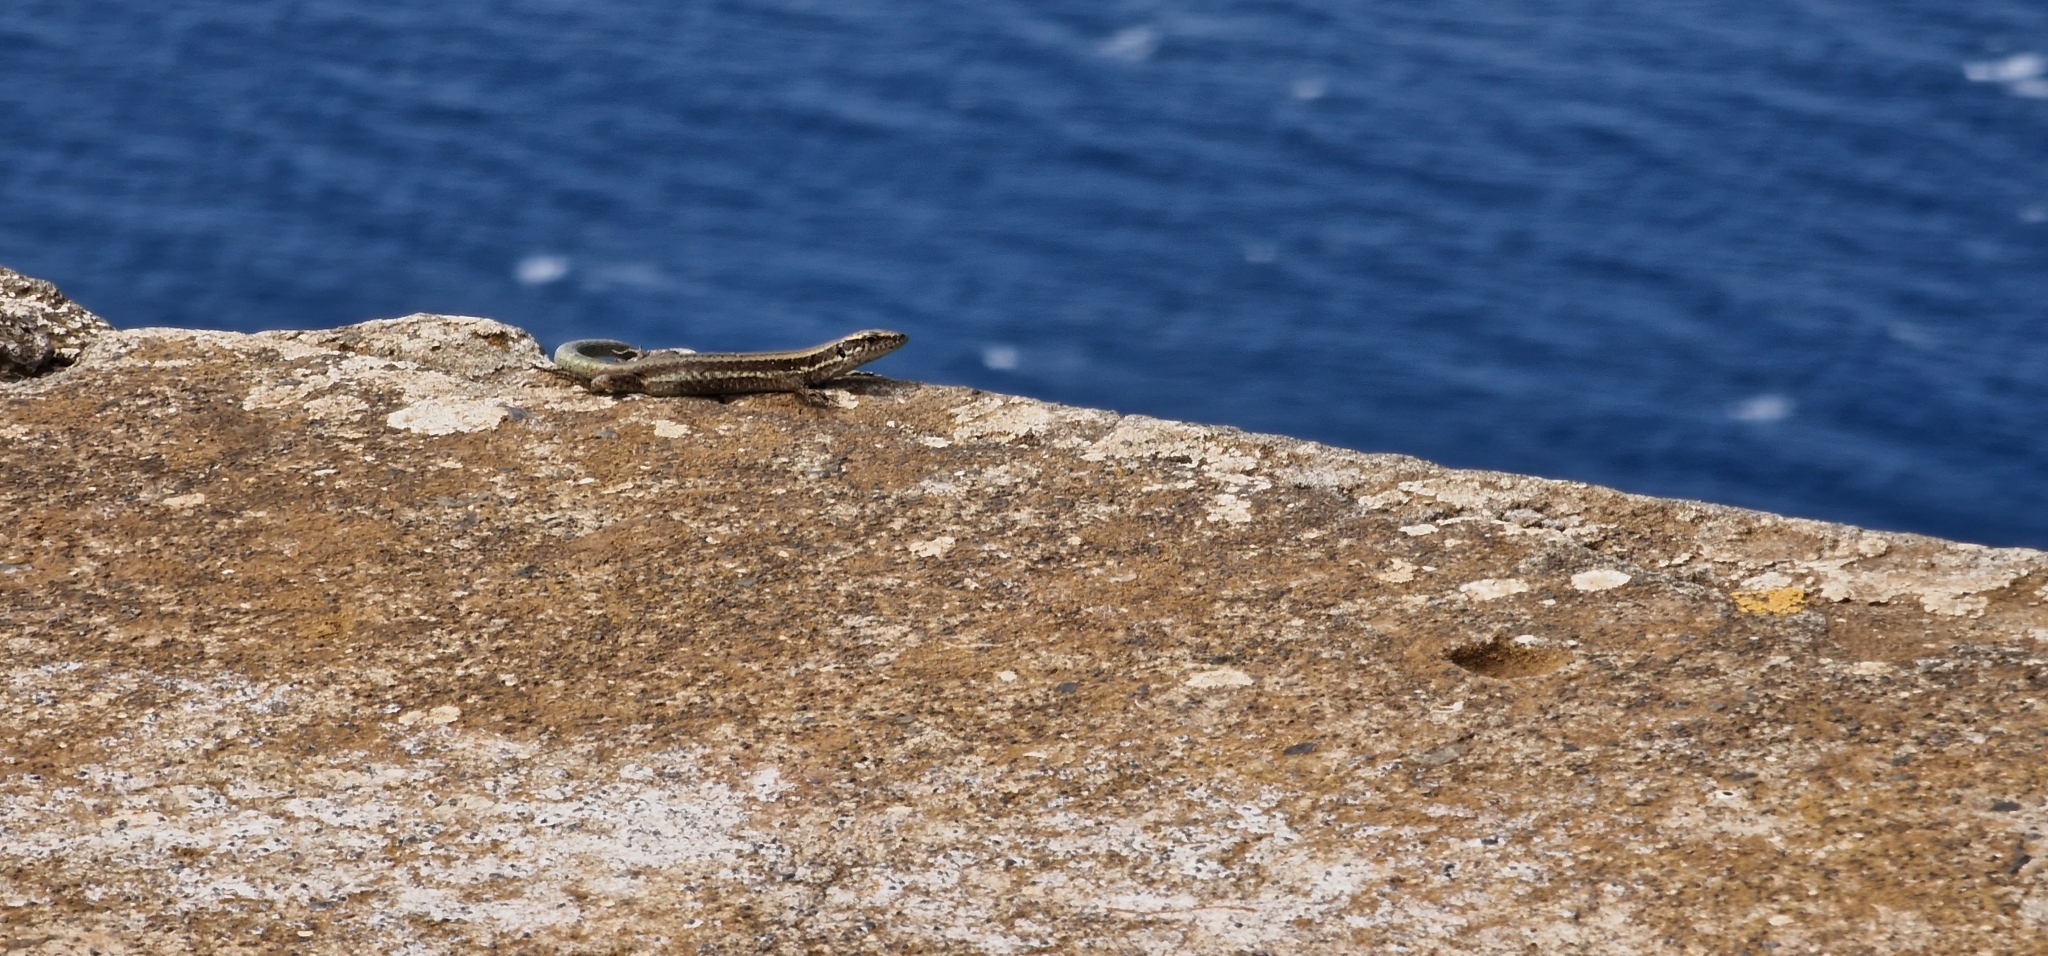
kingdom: Animalia
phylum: Chordata
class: Squamata
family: Lacertidae
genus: Teira
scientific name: Teira dugesii
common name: Madeira lizard
